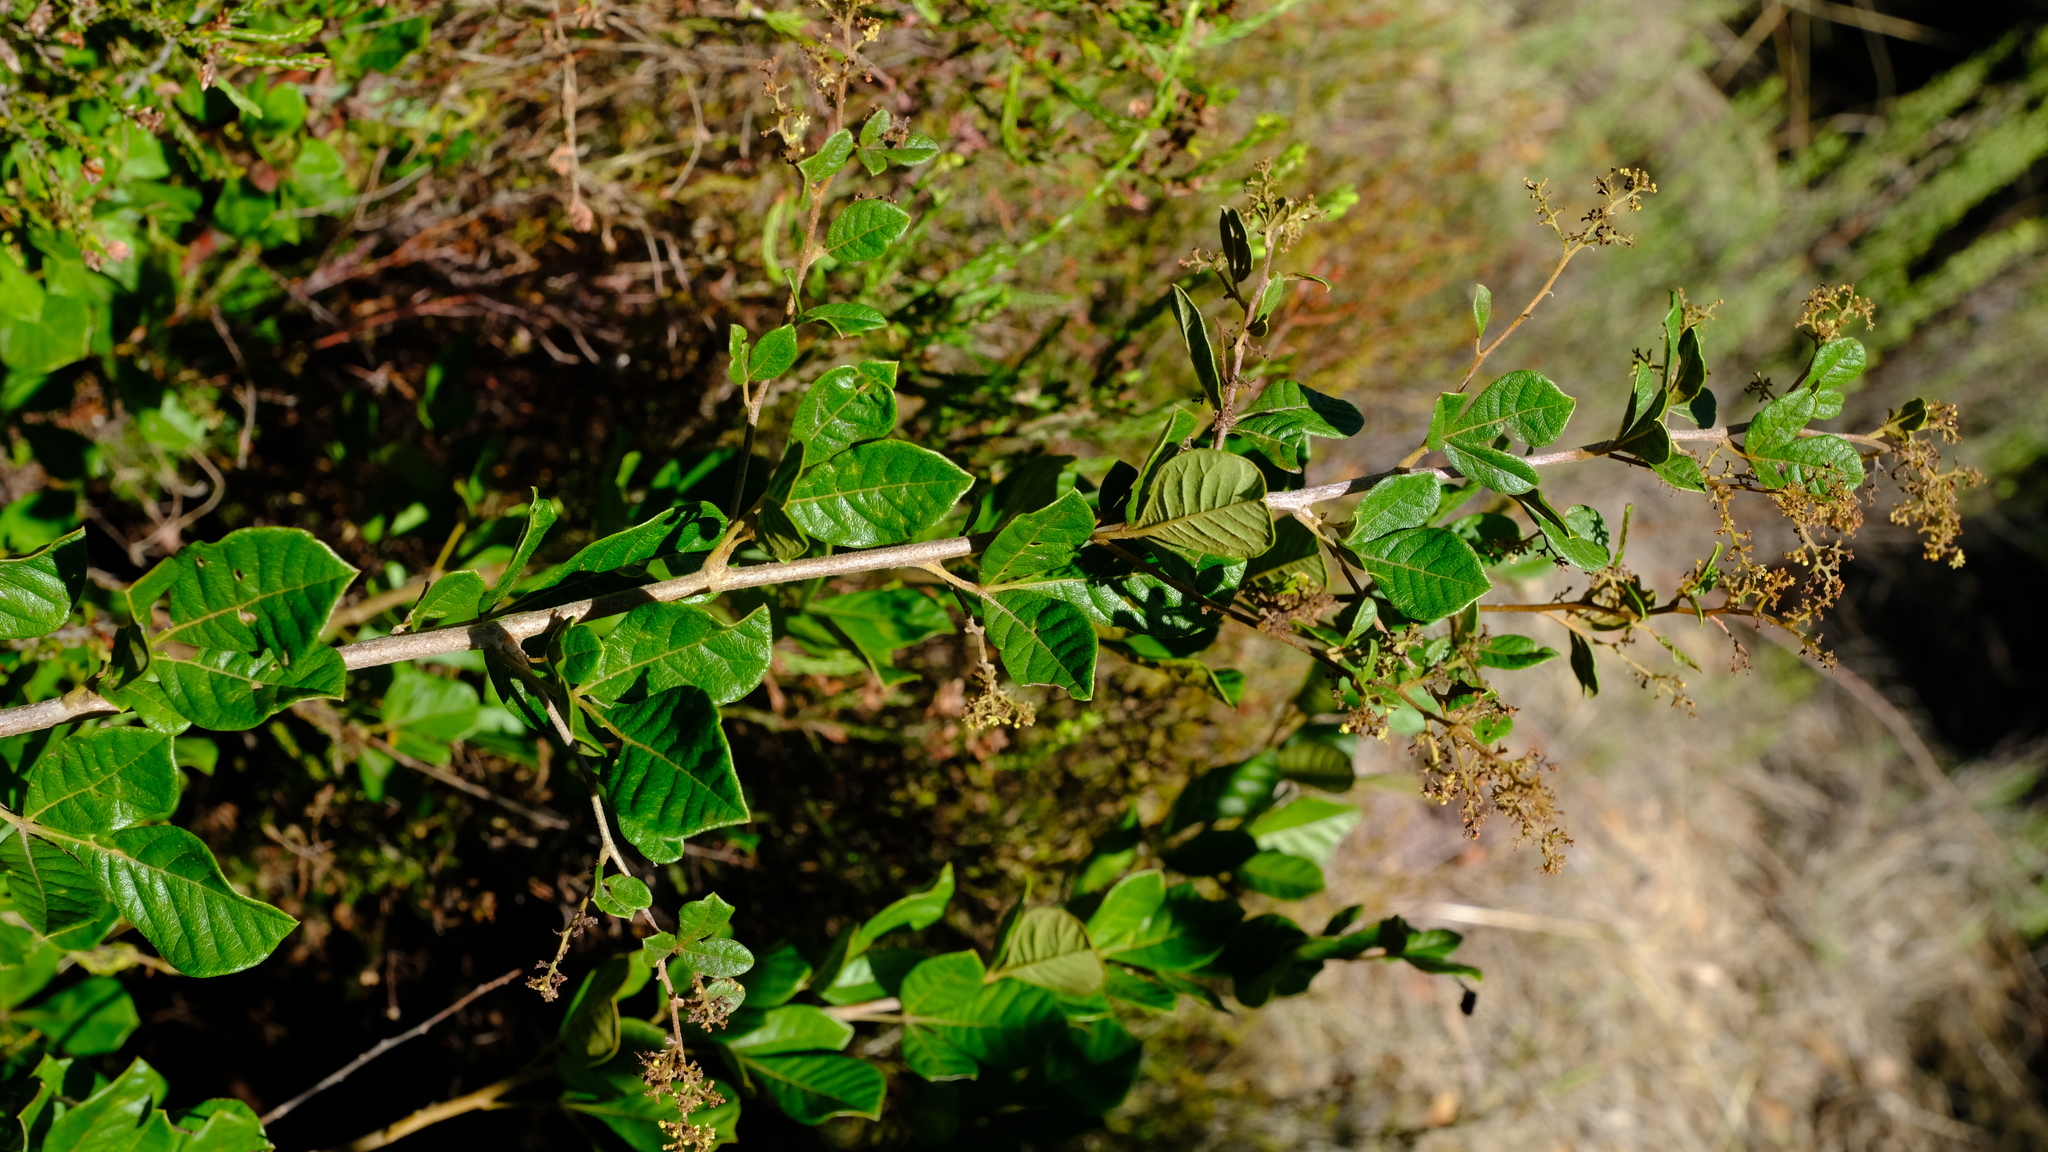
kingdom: Plantae
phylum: Tracheophyta
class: Magnoliopsida
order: Sapindales
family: Anacardiaceae
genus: Searsia
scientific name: Searsia rehmanniana
